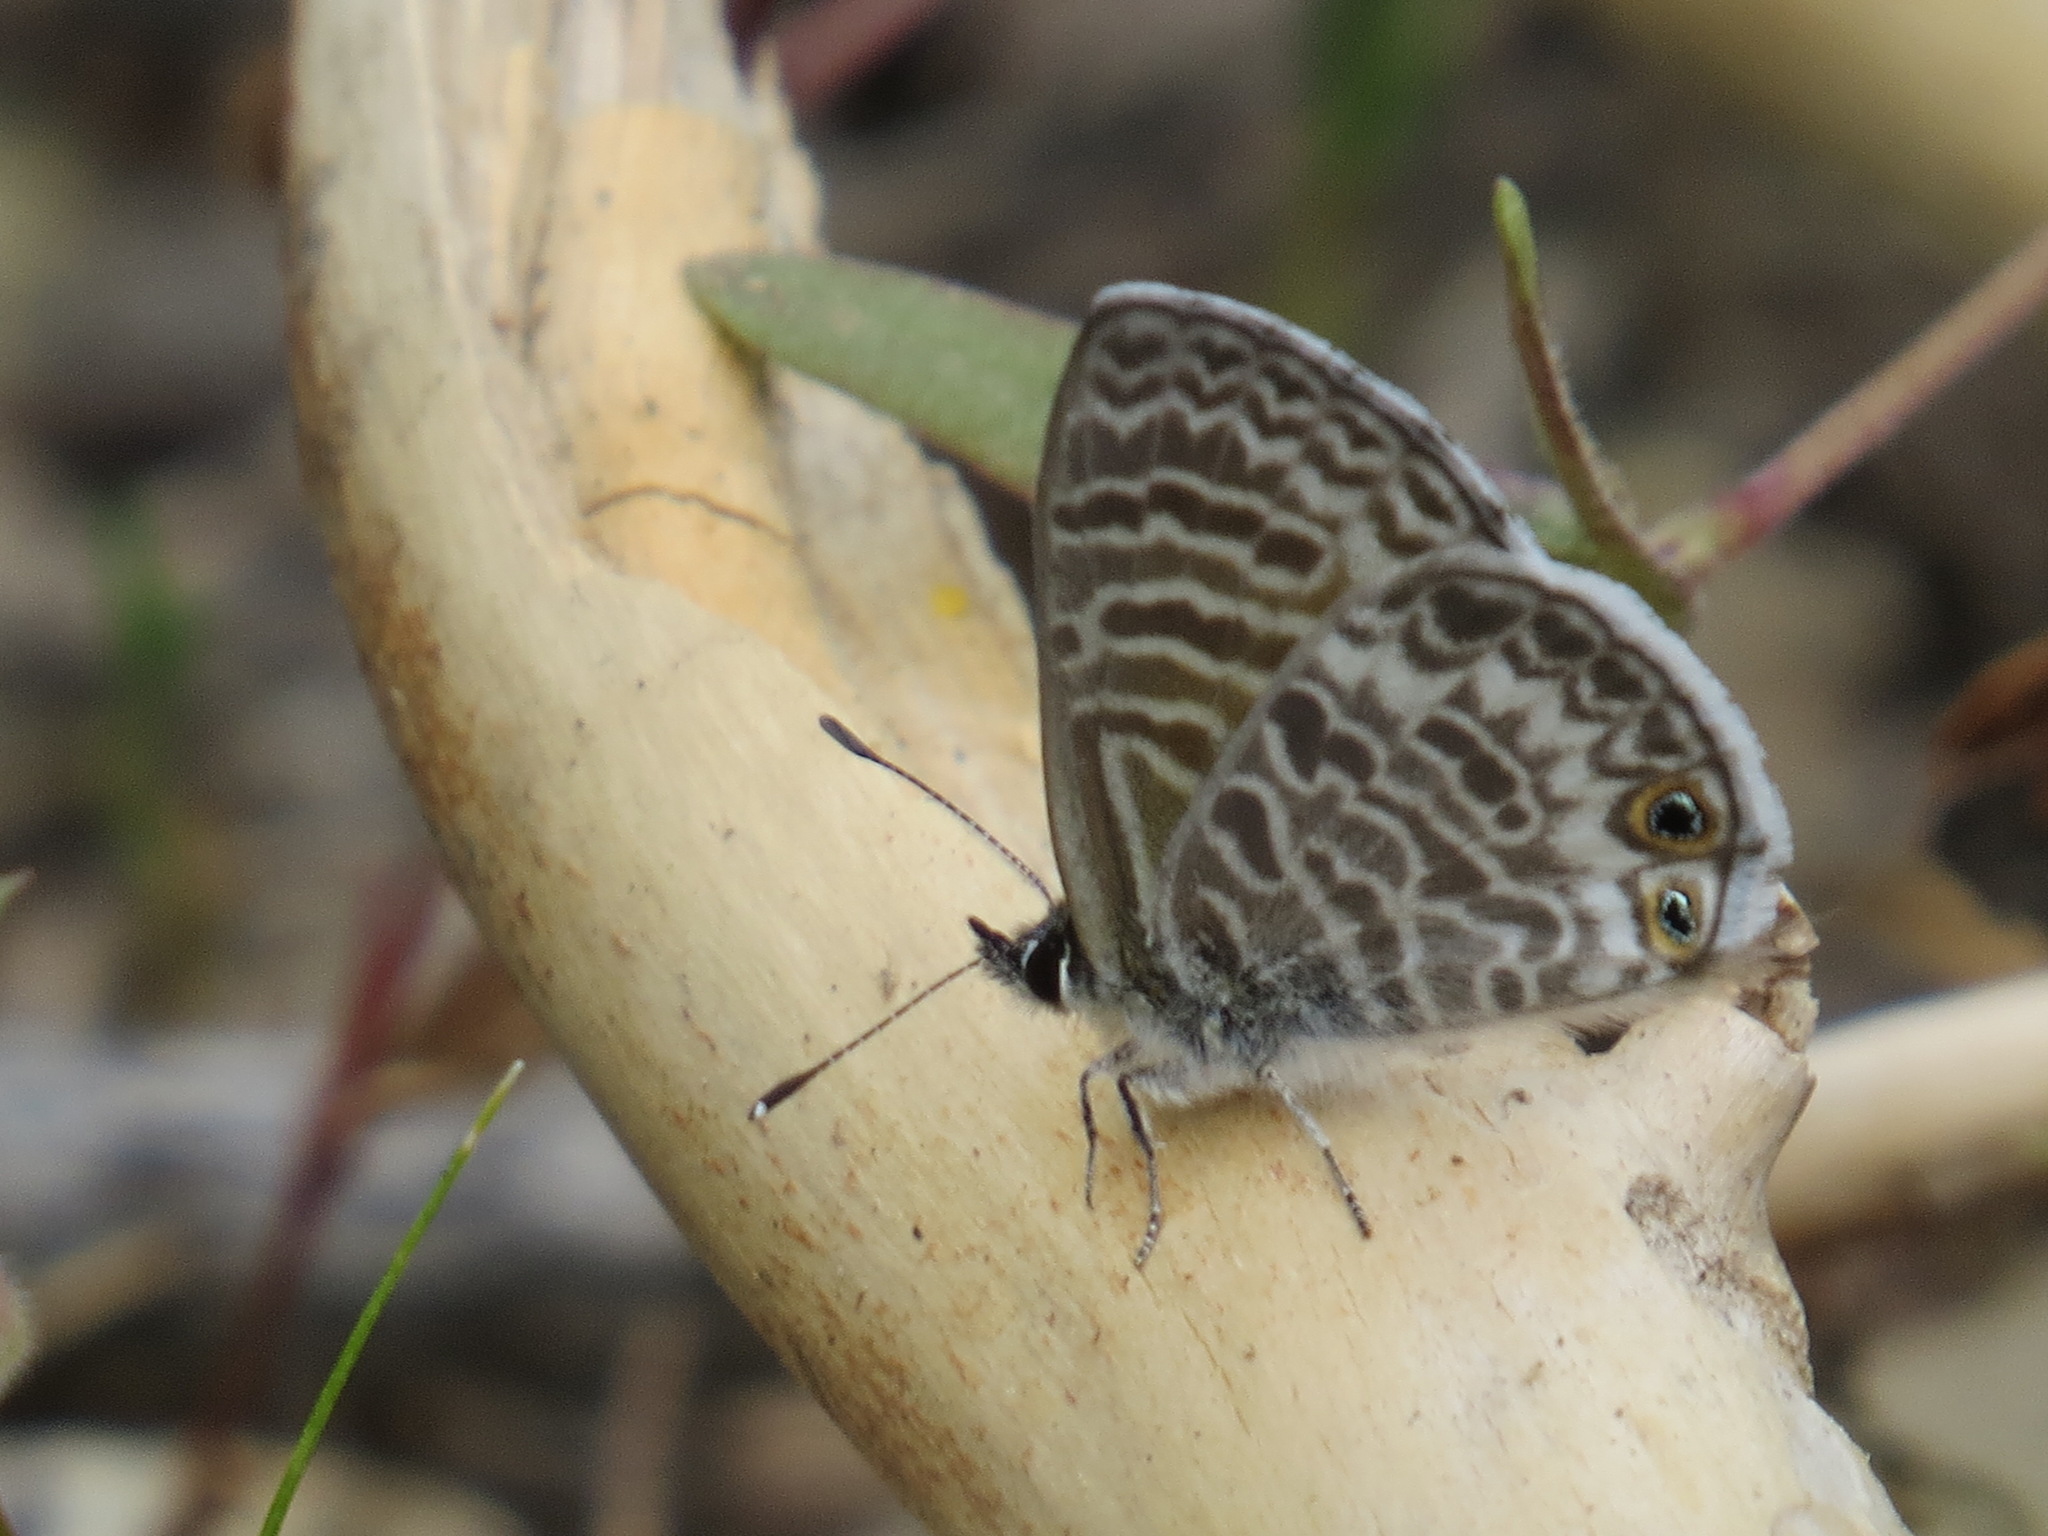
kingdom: Animalia
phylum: Arthropoda
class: Insecta
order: Lepidoptera
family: Lycaenidae
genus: Leptotes
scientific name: Leptotes marina
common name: Marine blue
